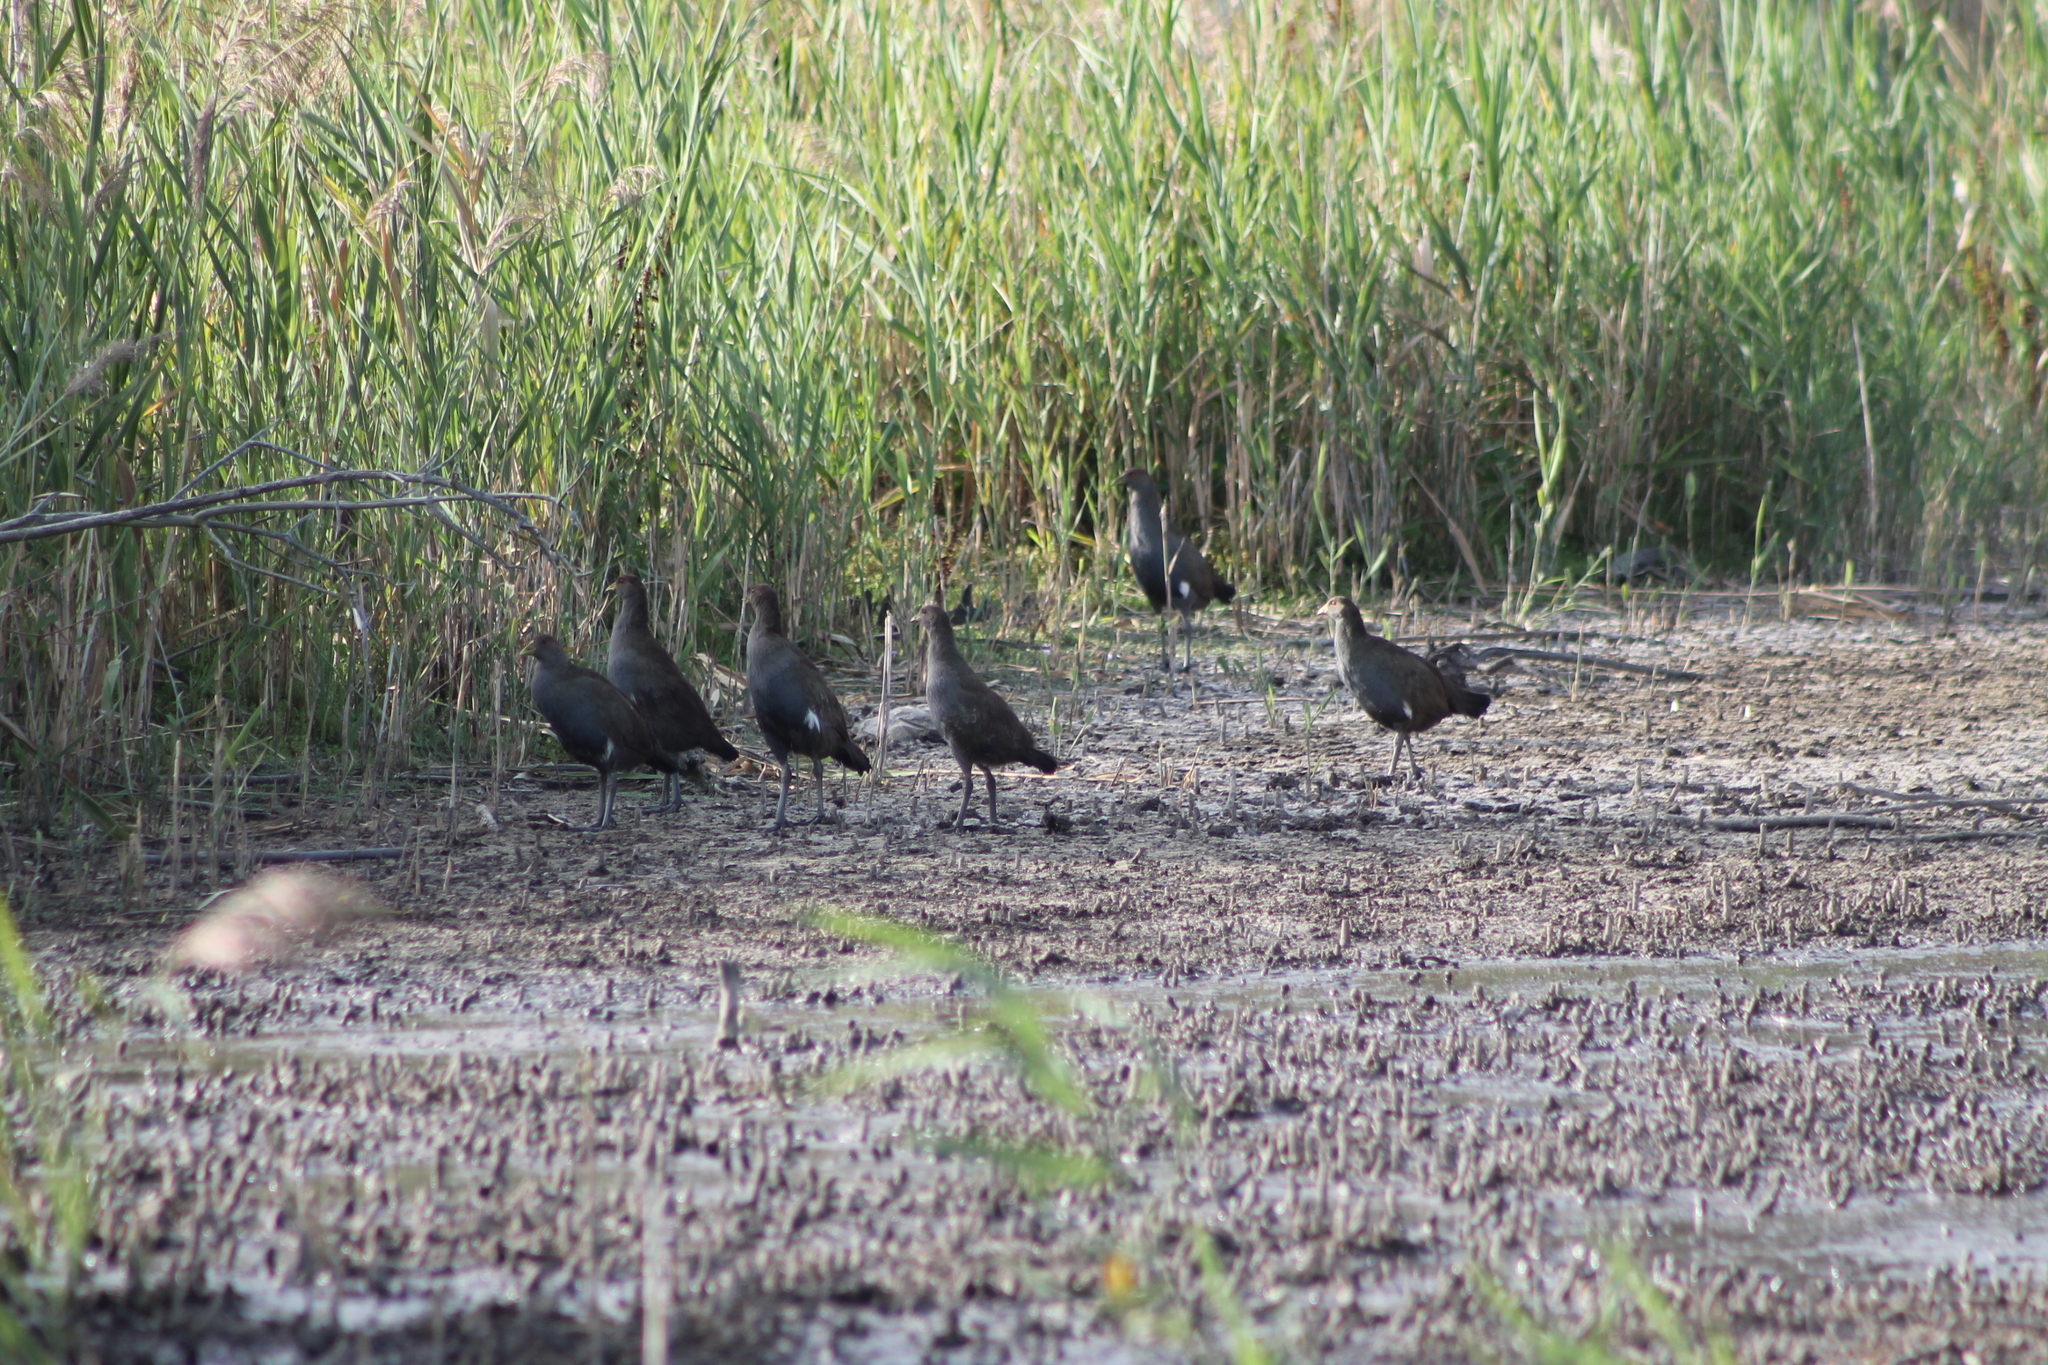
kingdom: Animalia
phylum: Chordata
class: Aves
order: Gruiformes
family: Rallidae
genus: Gallinula
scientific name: Gallinula mortierii
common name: Tasmanian nativehen
